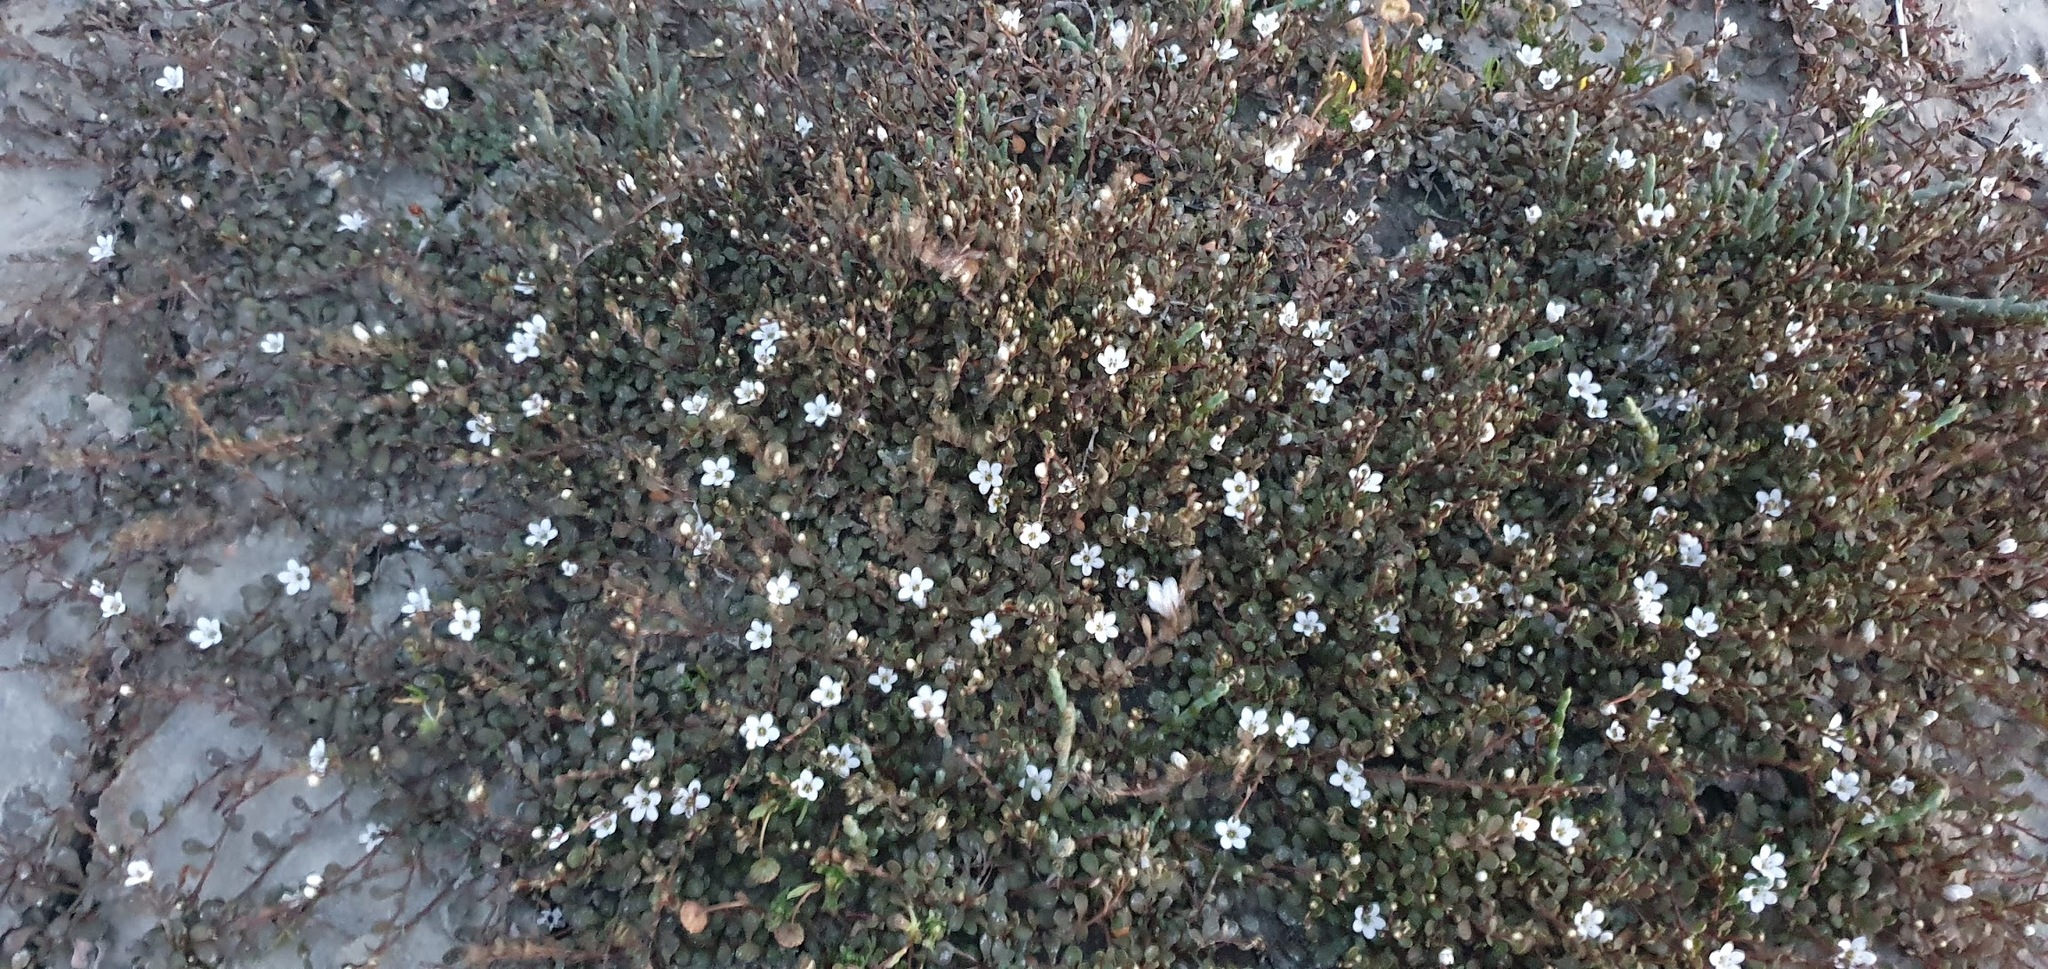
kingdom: Plantae
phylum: Tracheophyta
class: Magnoliopsida
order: Ericales
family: Primulaceae
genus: Samolus
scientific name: Samolus repens
